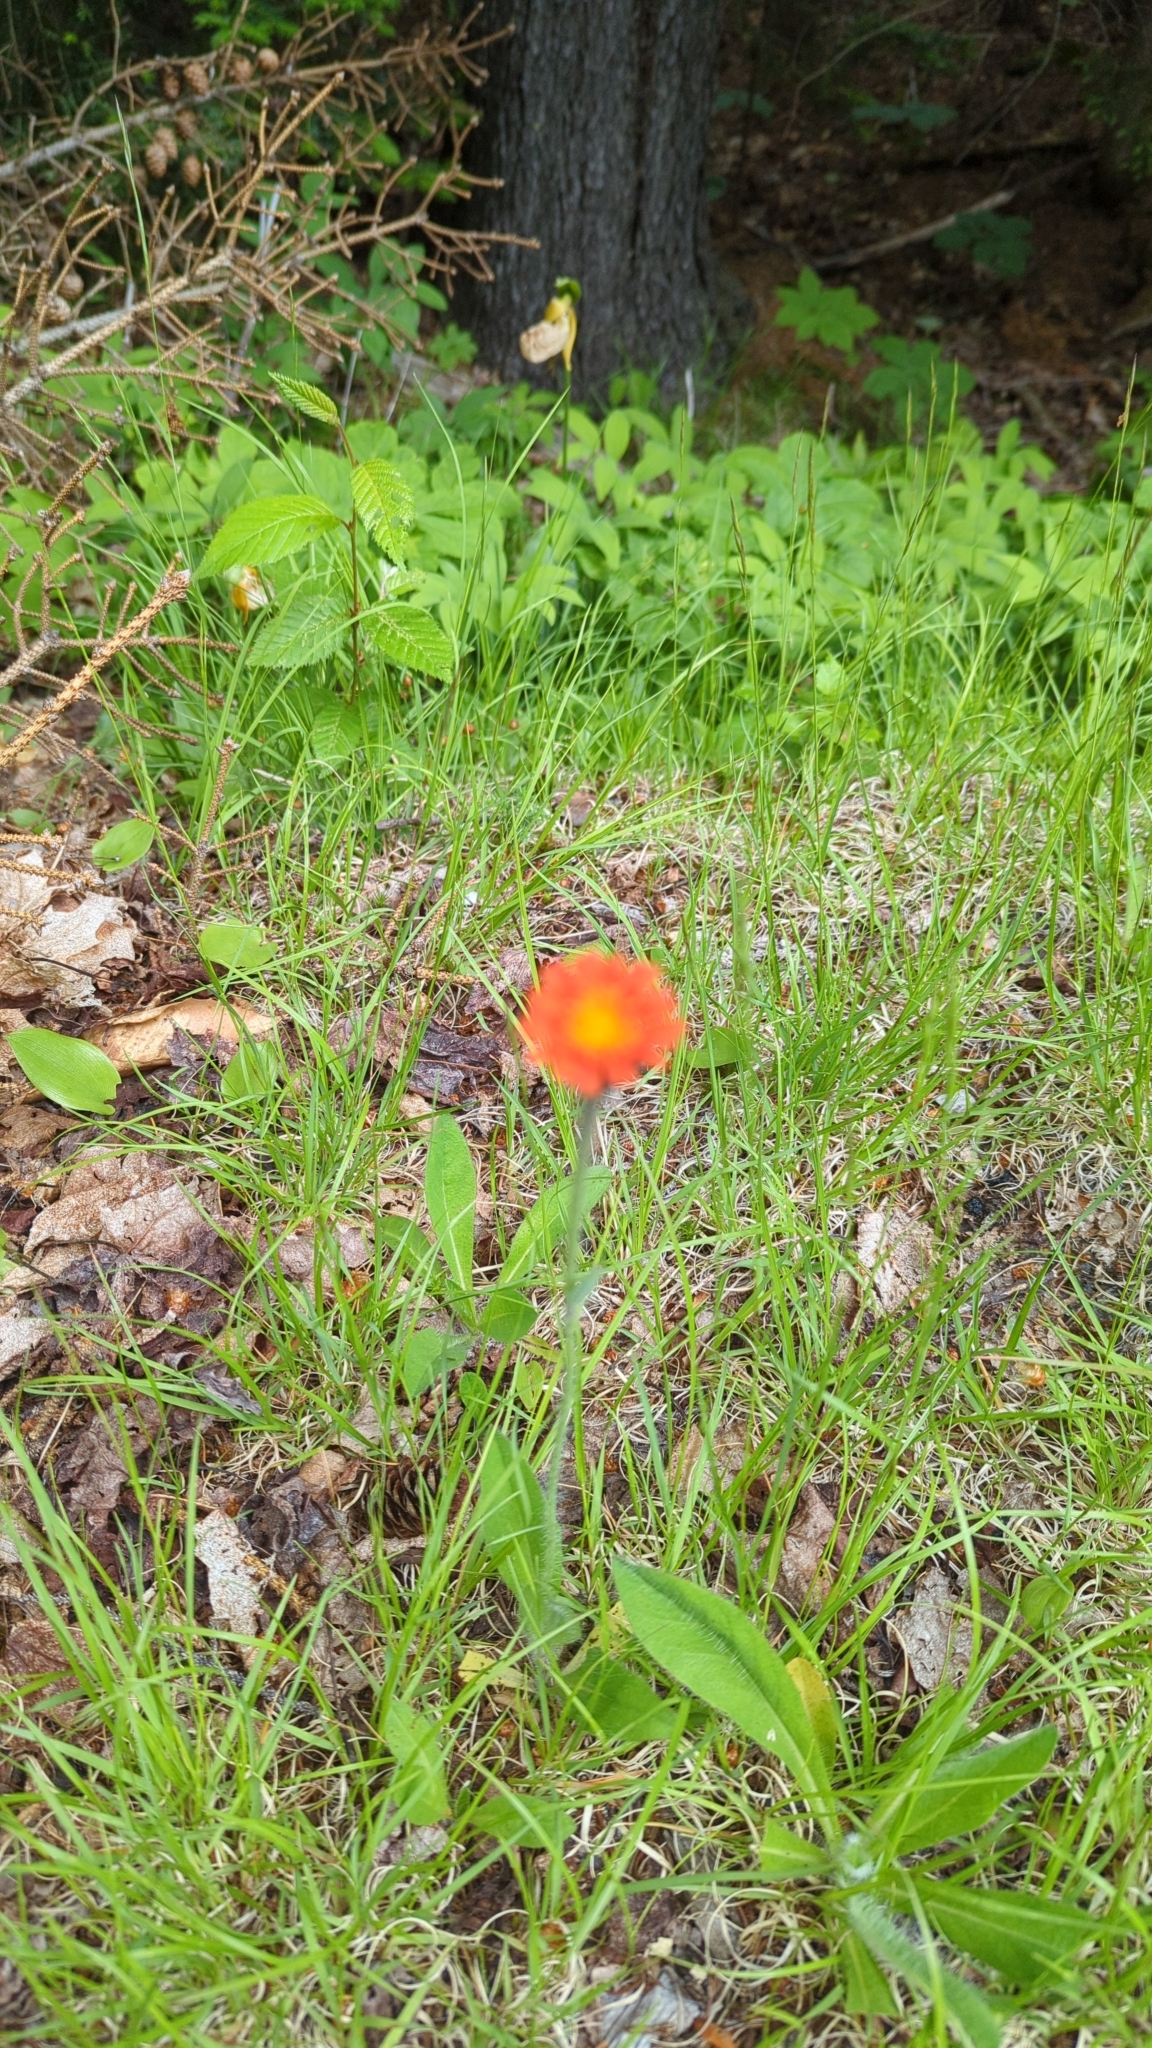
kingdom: Plantae
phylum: Tracheophyta
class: Magnoliopsida
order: Asterales
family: Asteraceae
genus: Pilosella
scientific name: Pilosella aurantiaca
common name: Fox-and-cubs
